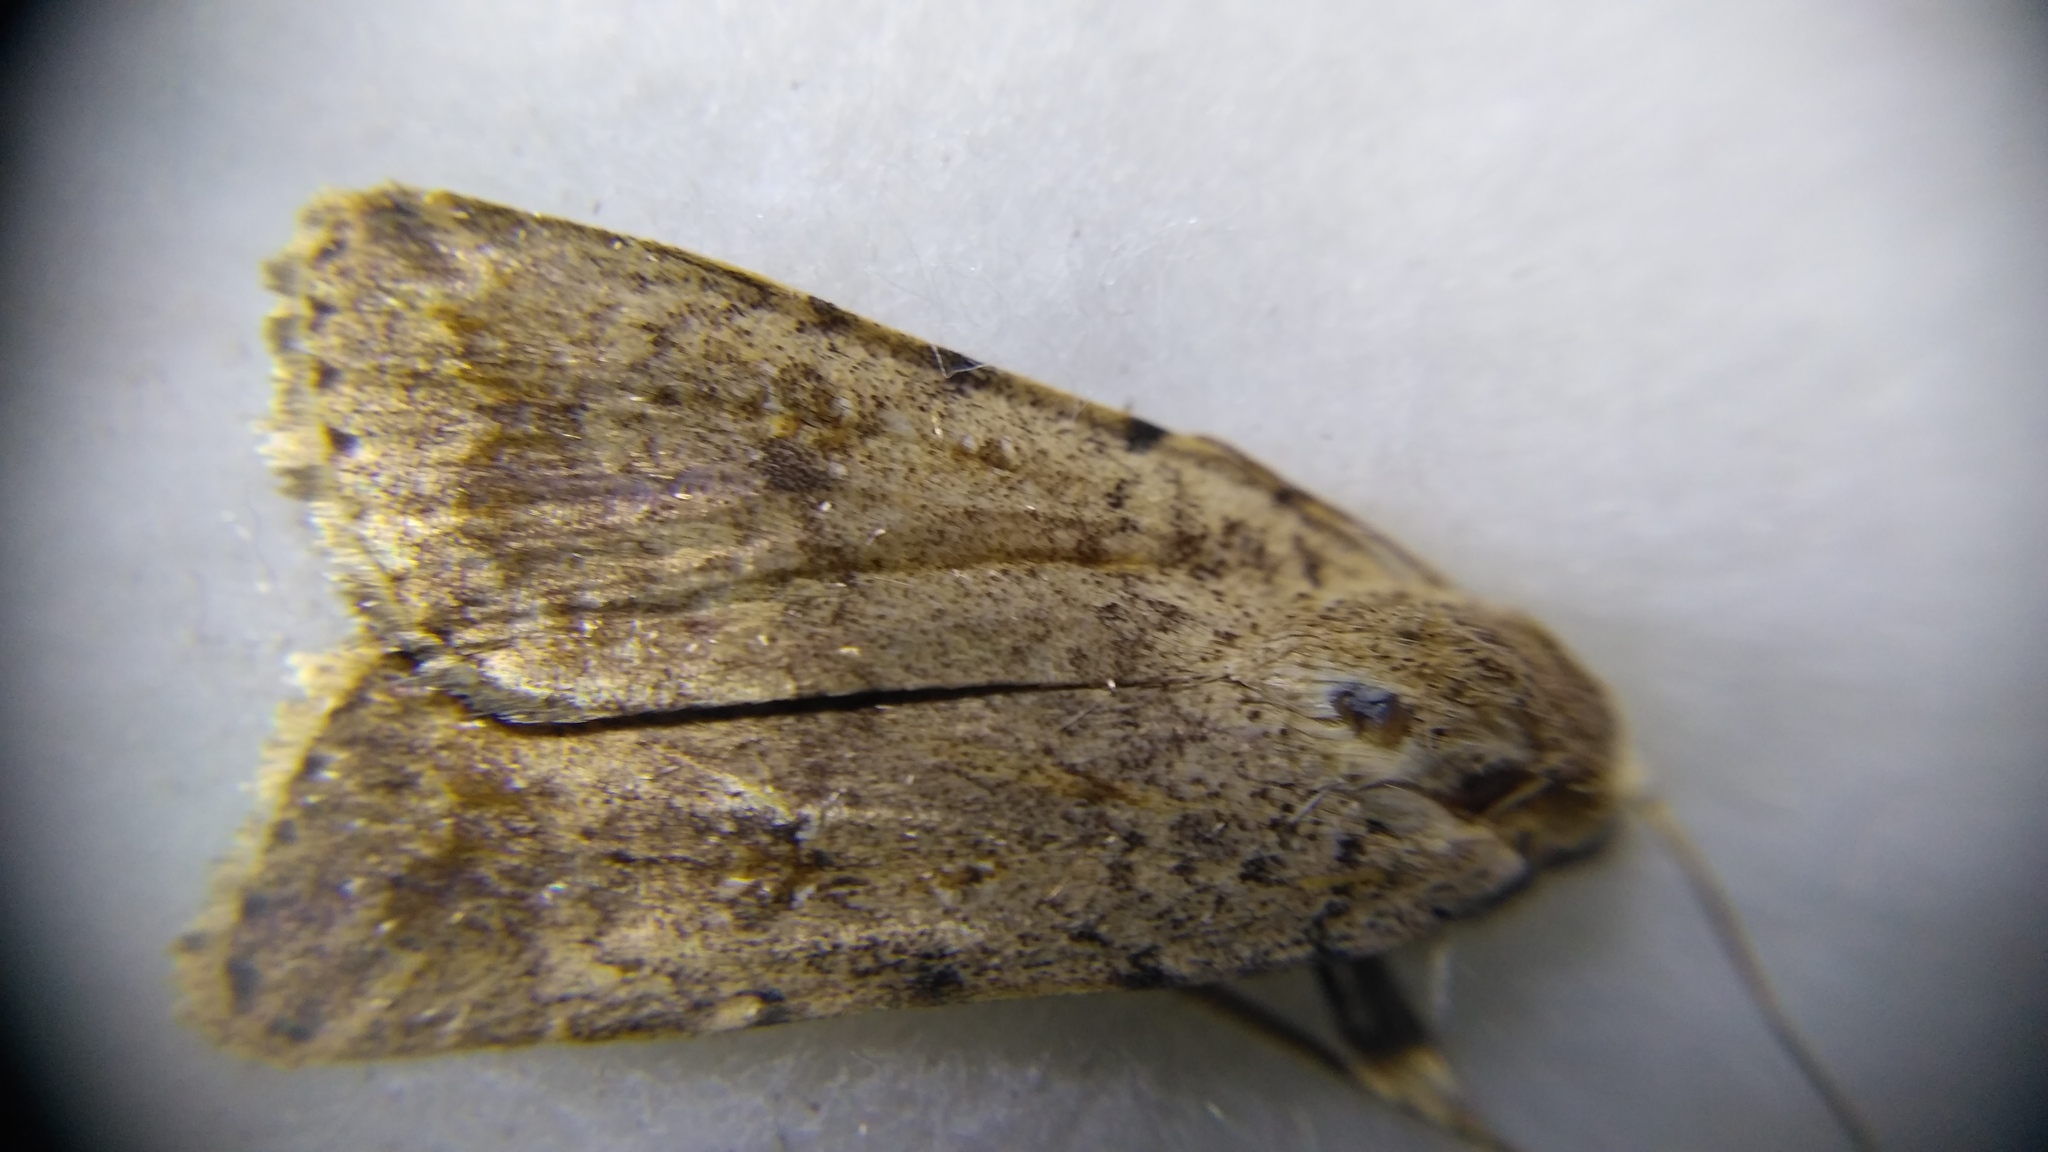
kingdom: Animalia
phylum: Arthropoda
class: Insecta
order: Lepidoptera
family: Noctuidae
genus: Caradrina
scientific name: Caradrina clavipalpis
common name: Pale mottled willow
